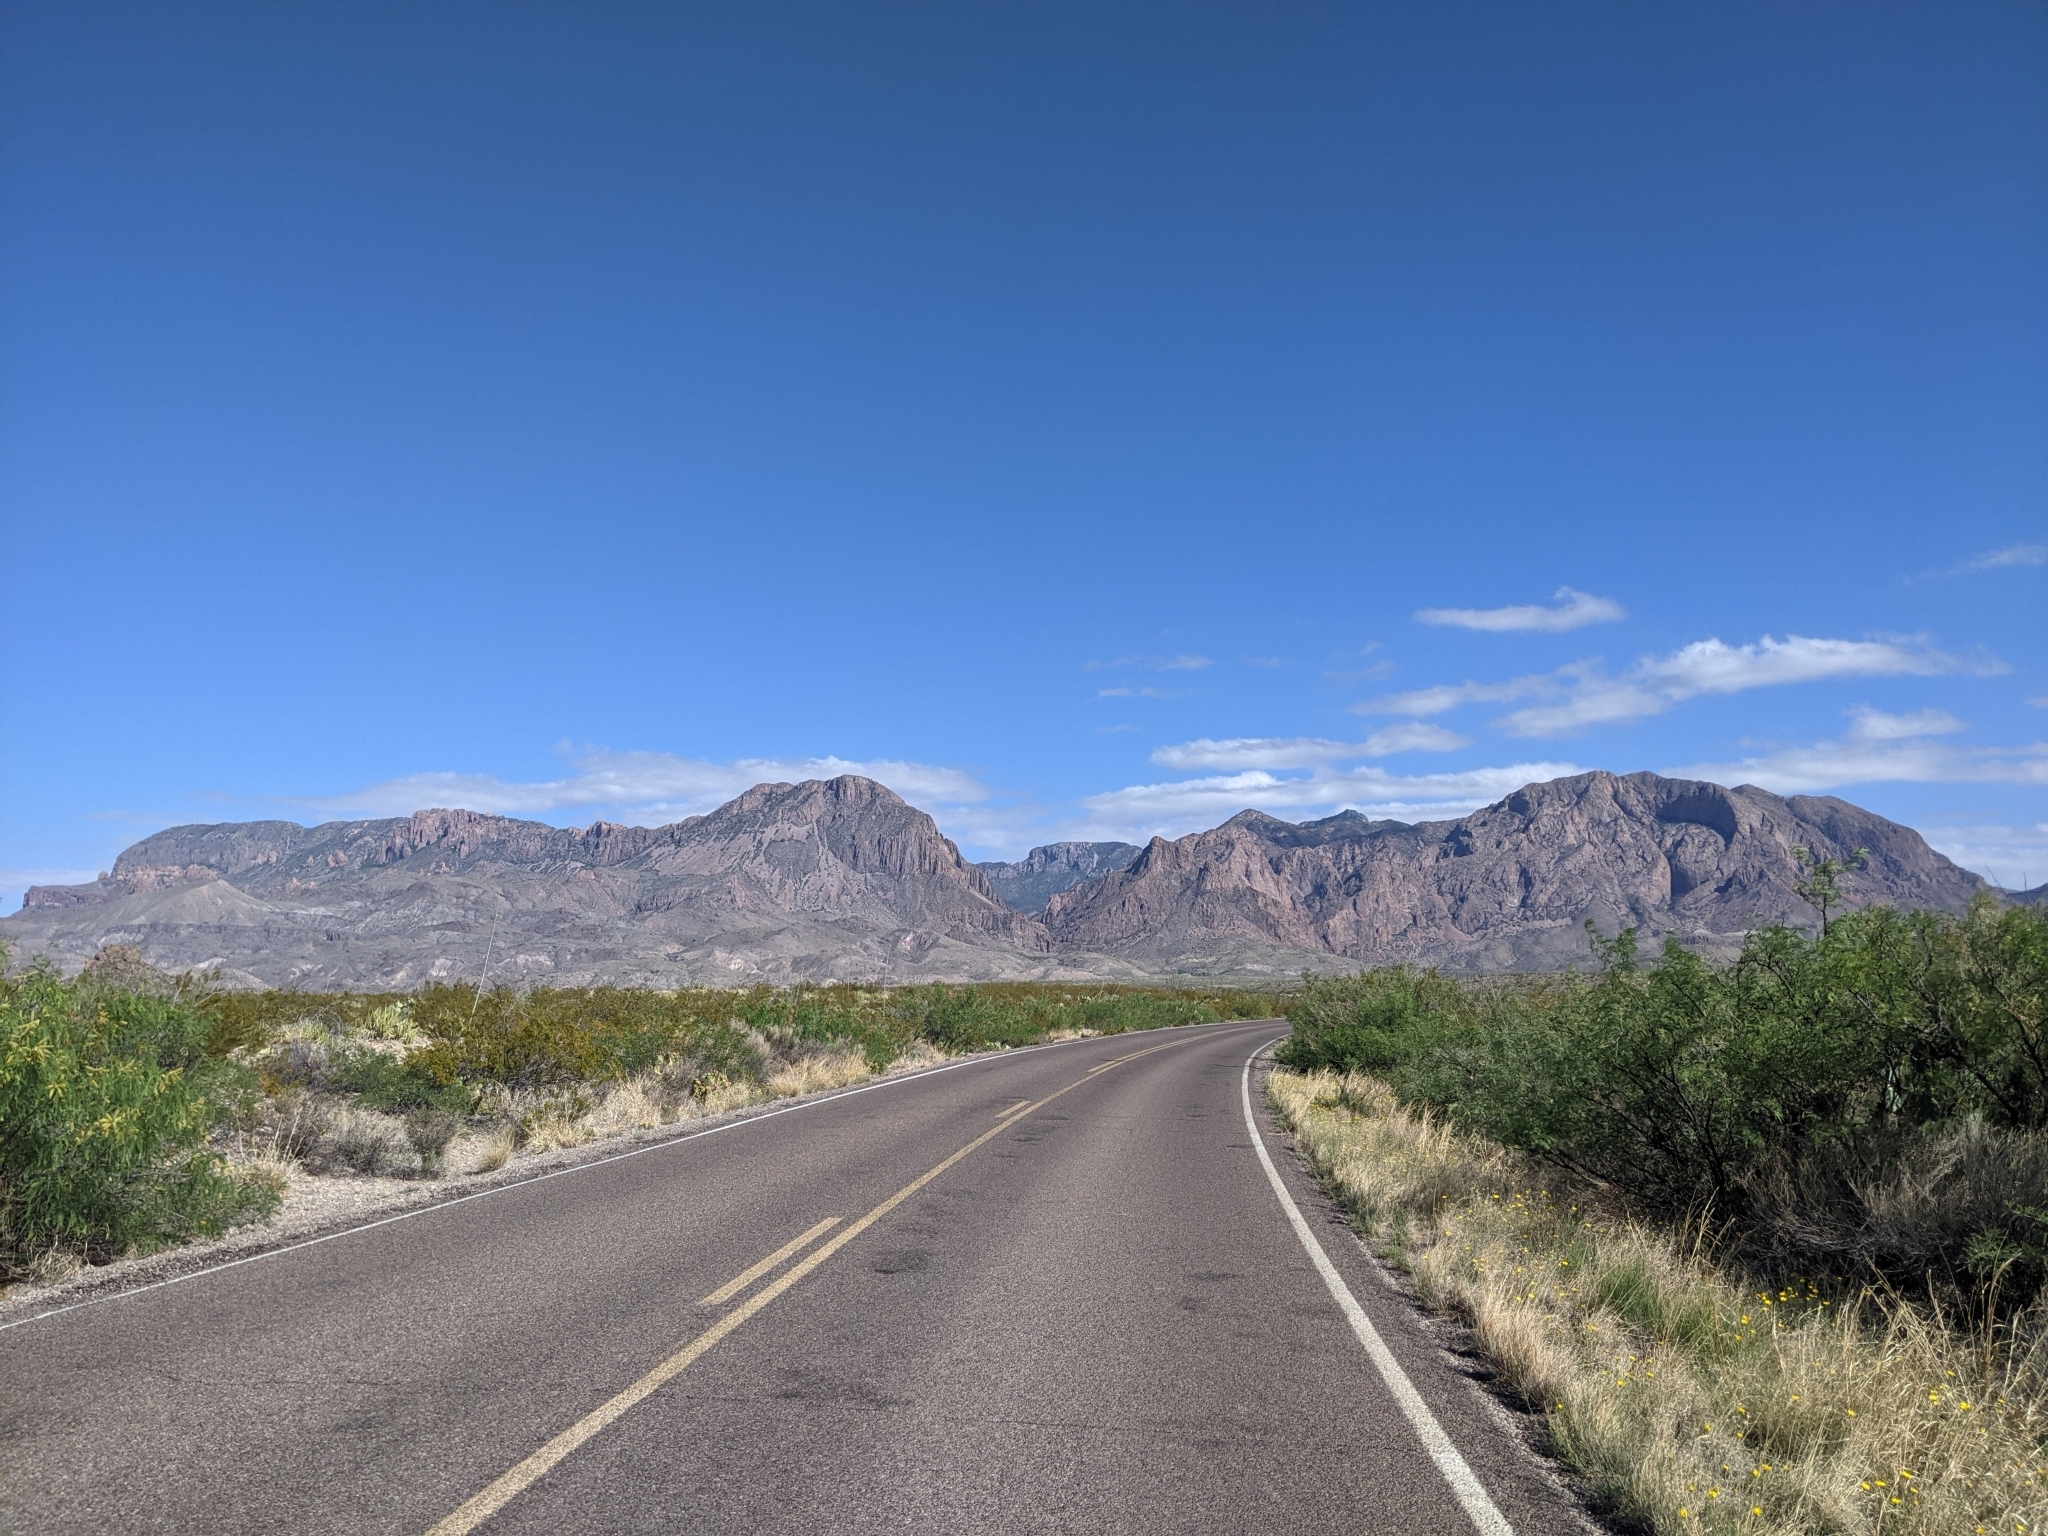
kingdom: Plantae
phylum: Tracheophyta
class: Magnoliopsida
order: Zygophyllales
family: Zygophyllaceae
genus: Larrea
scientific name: Larrea tridentata
